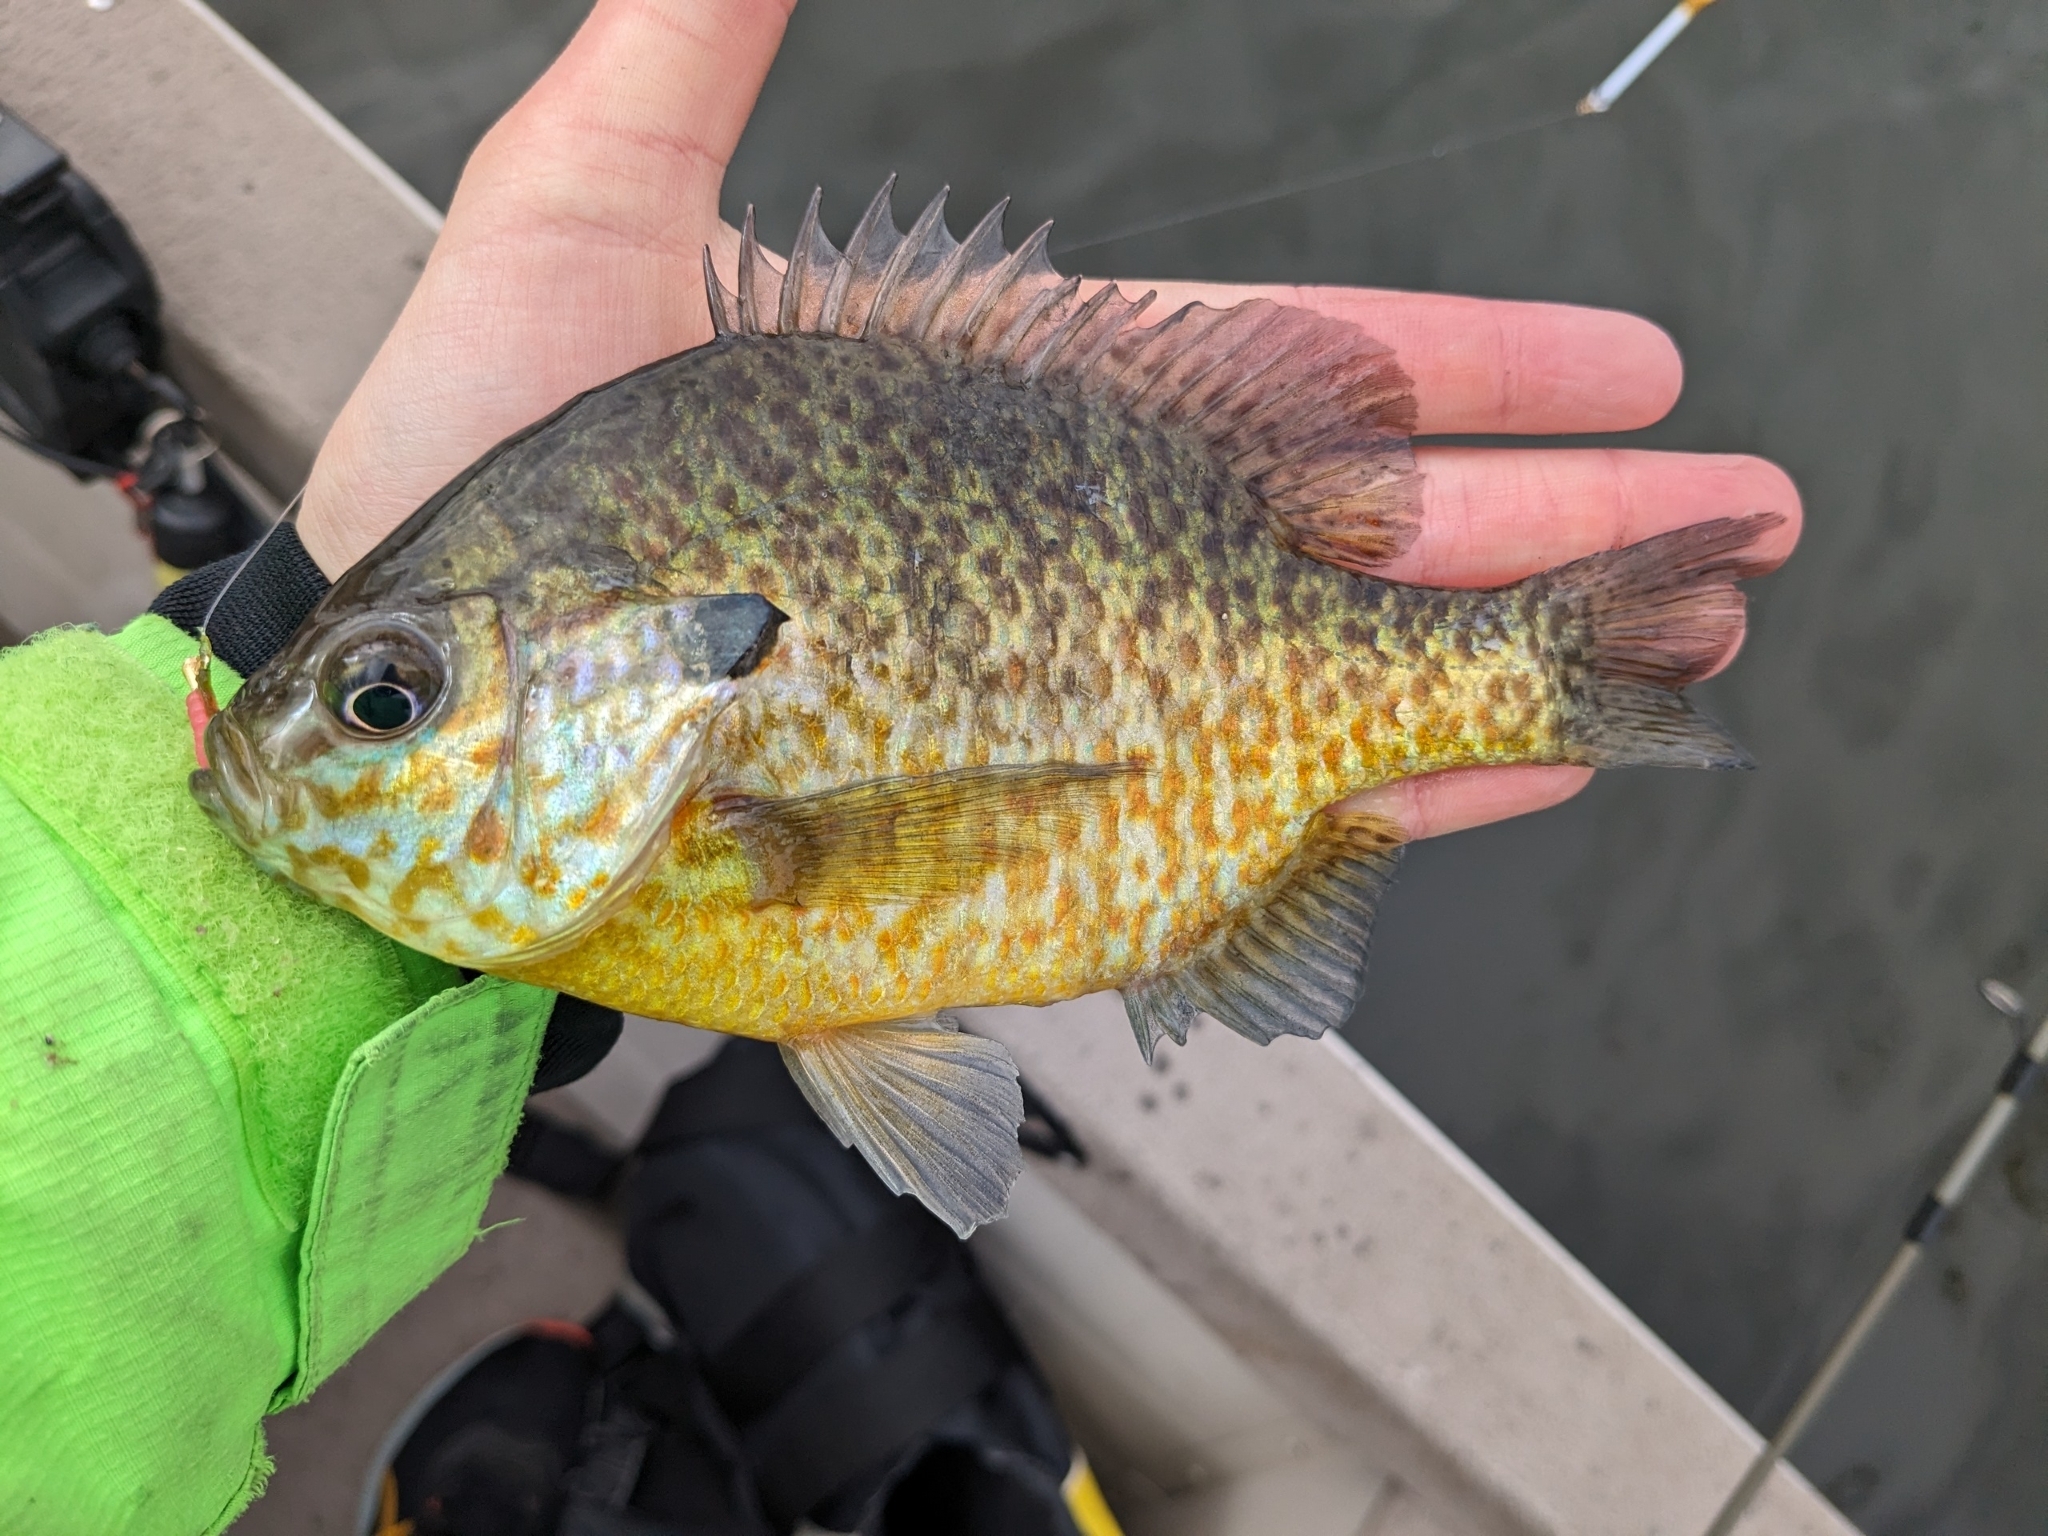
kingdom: Animalia
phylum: Chordata
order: Perciformes
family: Centrarchidae
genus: Lepomis
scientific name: Lepomis
